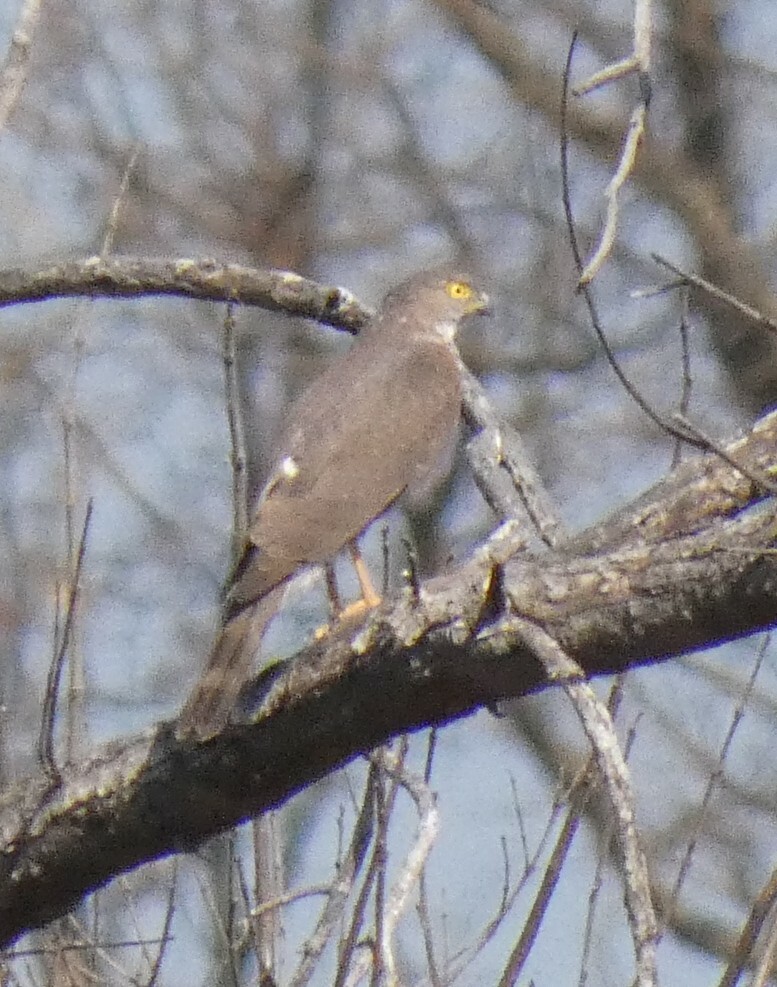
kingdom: Animalia
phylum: Chordata
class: Aves
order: Accipitriformes
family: Accipitridae
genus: Accipiter
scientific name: Accipiter tachiro
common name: African goshawk
